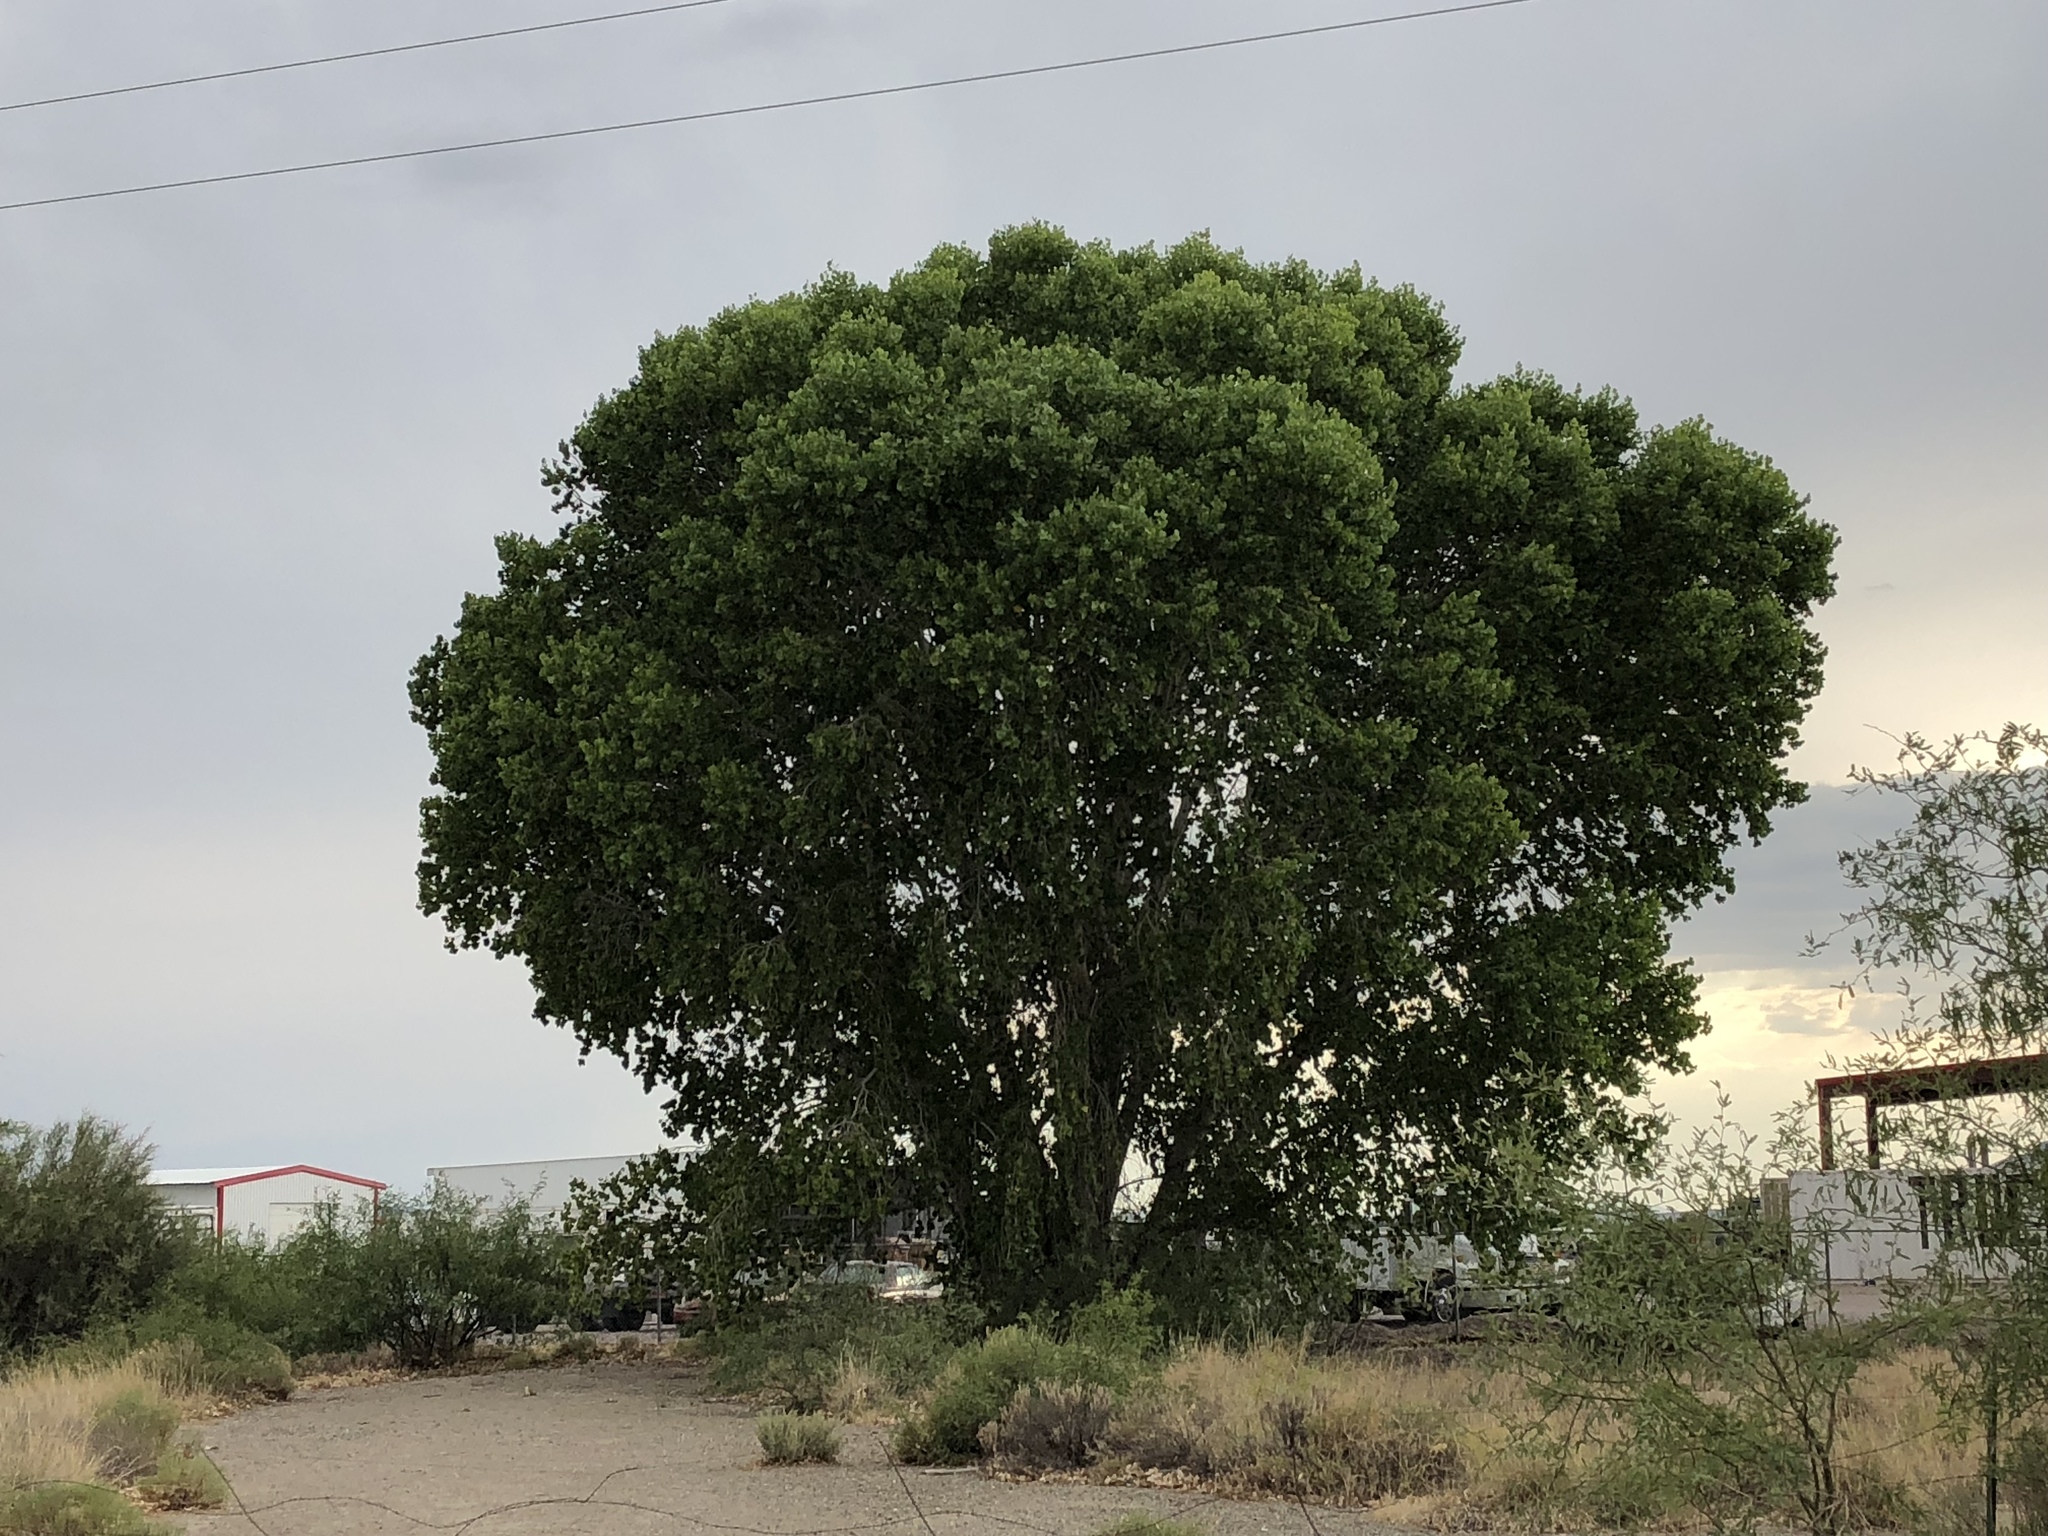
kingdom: Plantae
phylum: Tracheophyta
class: Magnoliopsida
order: Malpighiales
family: Salicaceae
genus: Populus
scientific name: Populus fremontii
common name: Fremont's cottonwood
